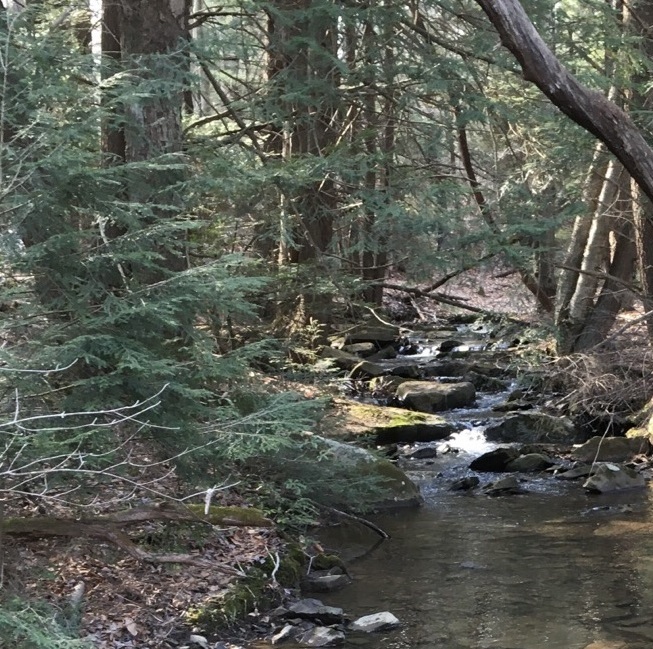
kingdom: Plantae
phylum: Tracheophyta
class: Pinopsida
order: Pinales
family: Pinaceae
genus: Tsuga
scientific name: Tsuga canadensis
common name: Eastern hemlock
